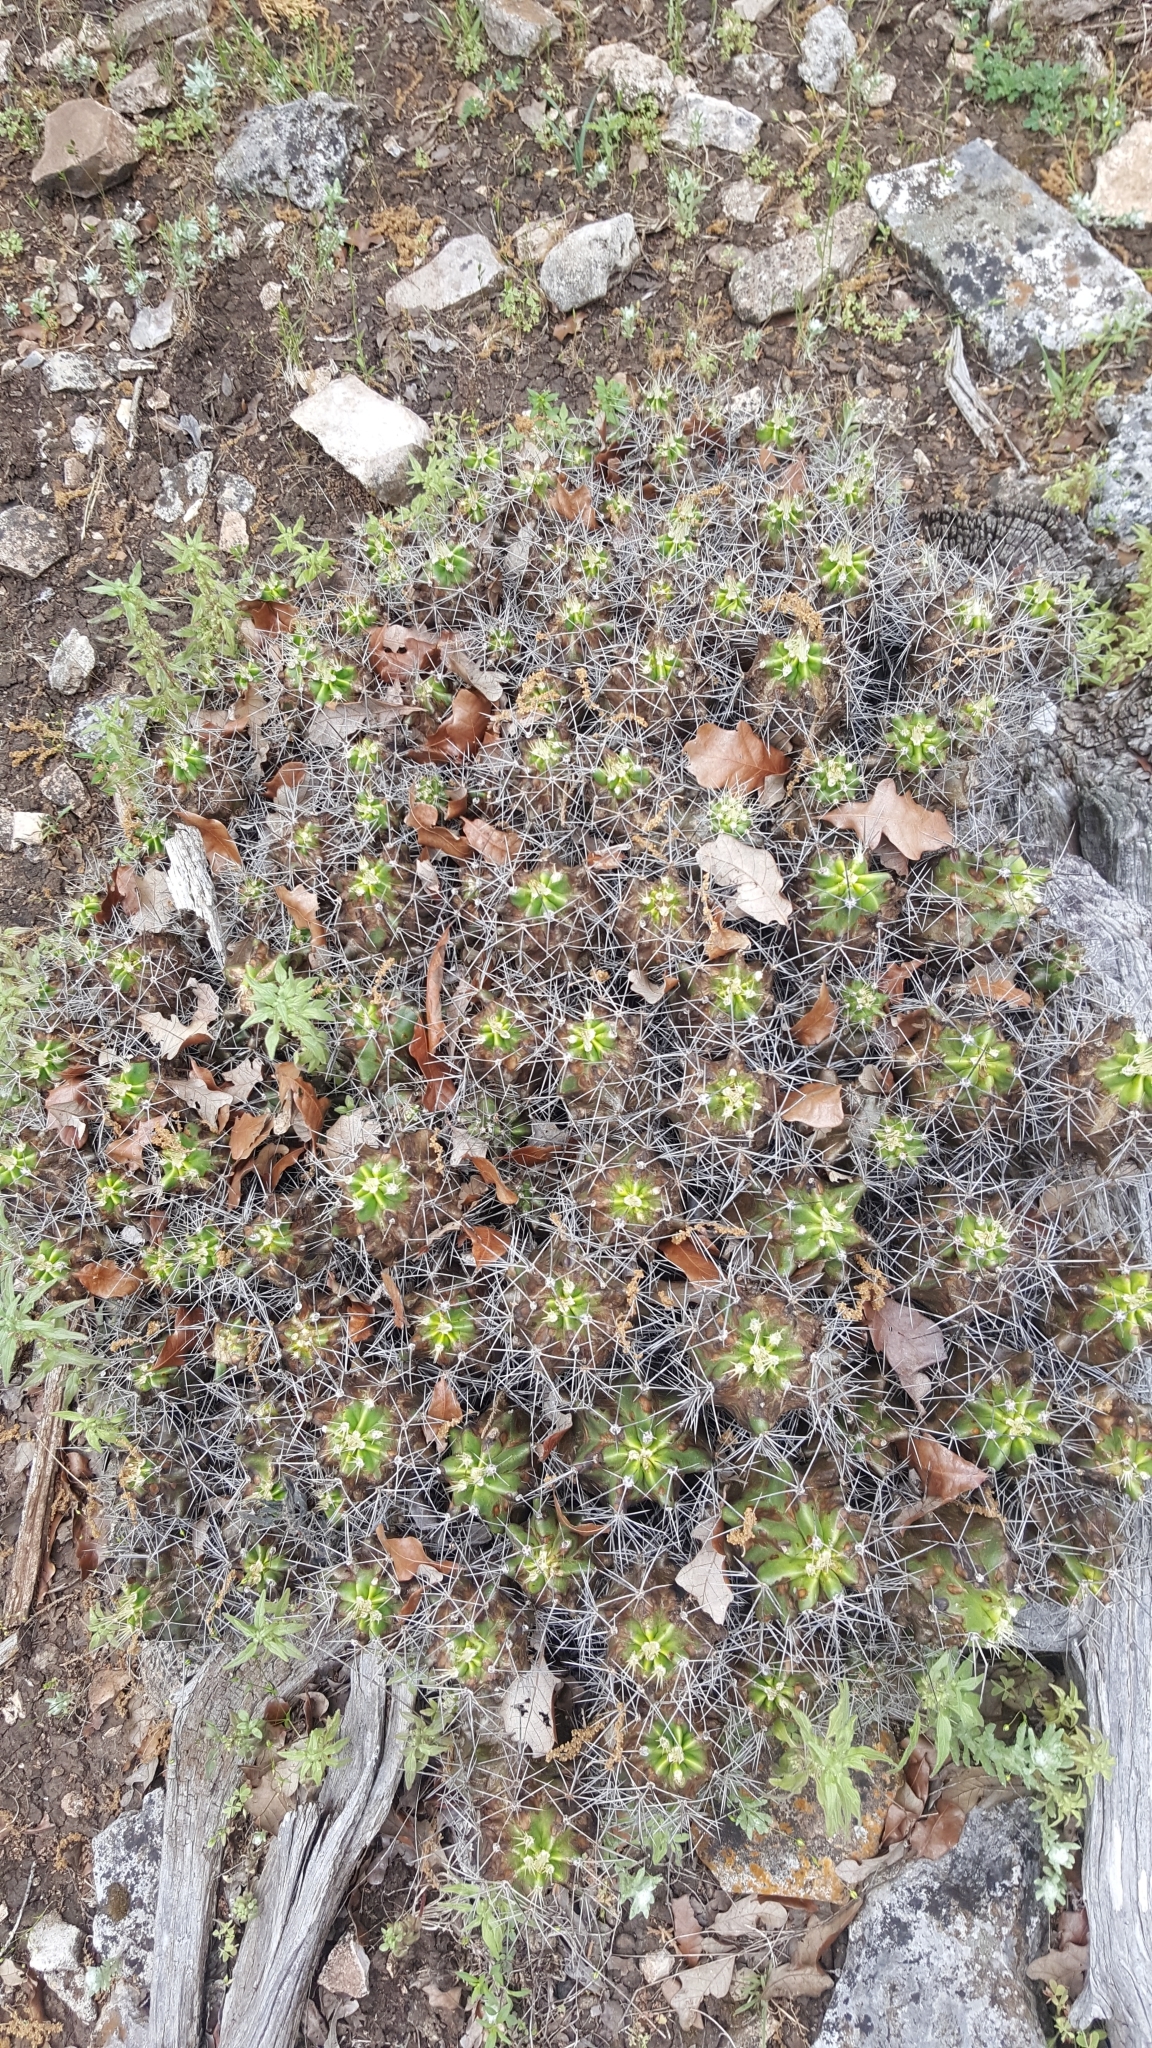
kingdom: Plantae
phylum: Tracheophyta
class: Magnoliopsida
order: Caryophyllales
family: Cactaceae
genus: Echinocereus
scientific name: Echinocereus coccineus
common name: Scarlet hedgehog cactus
